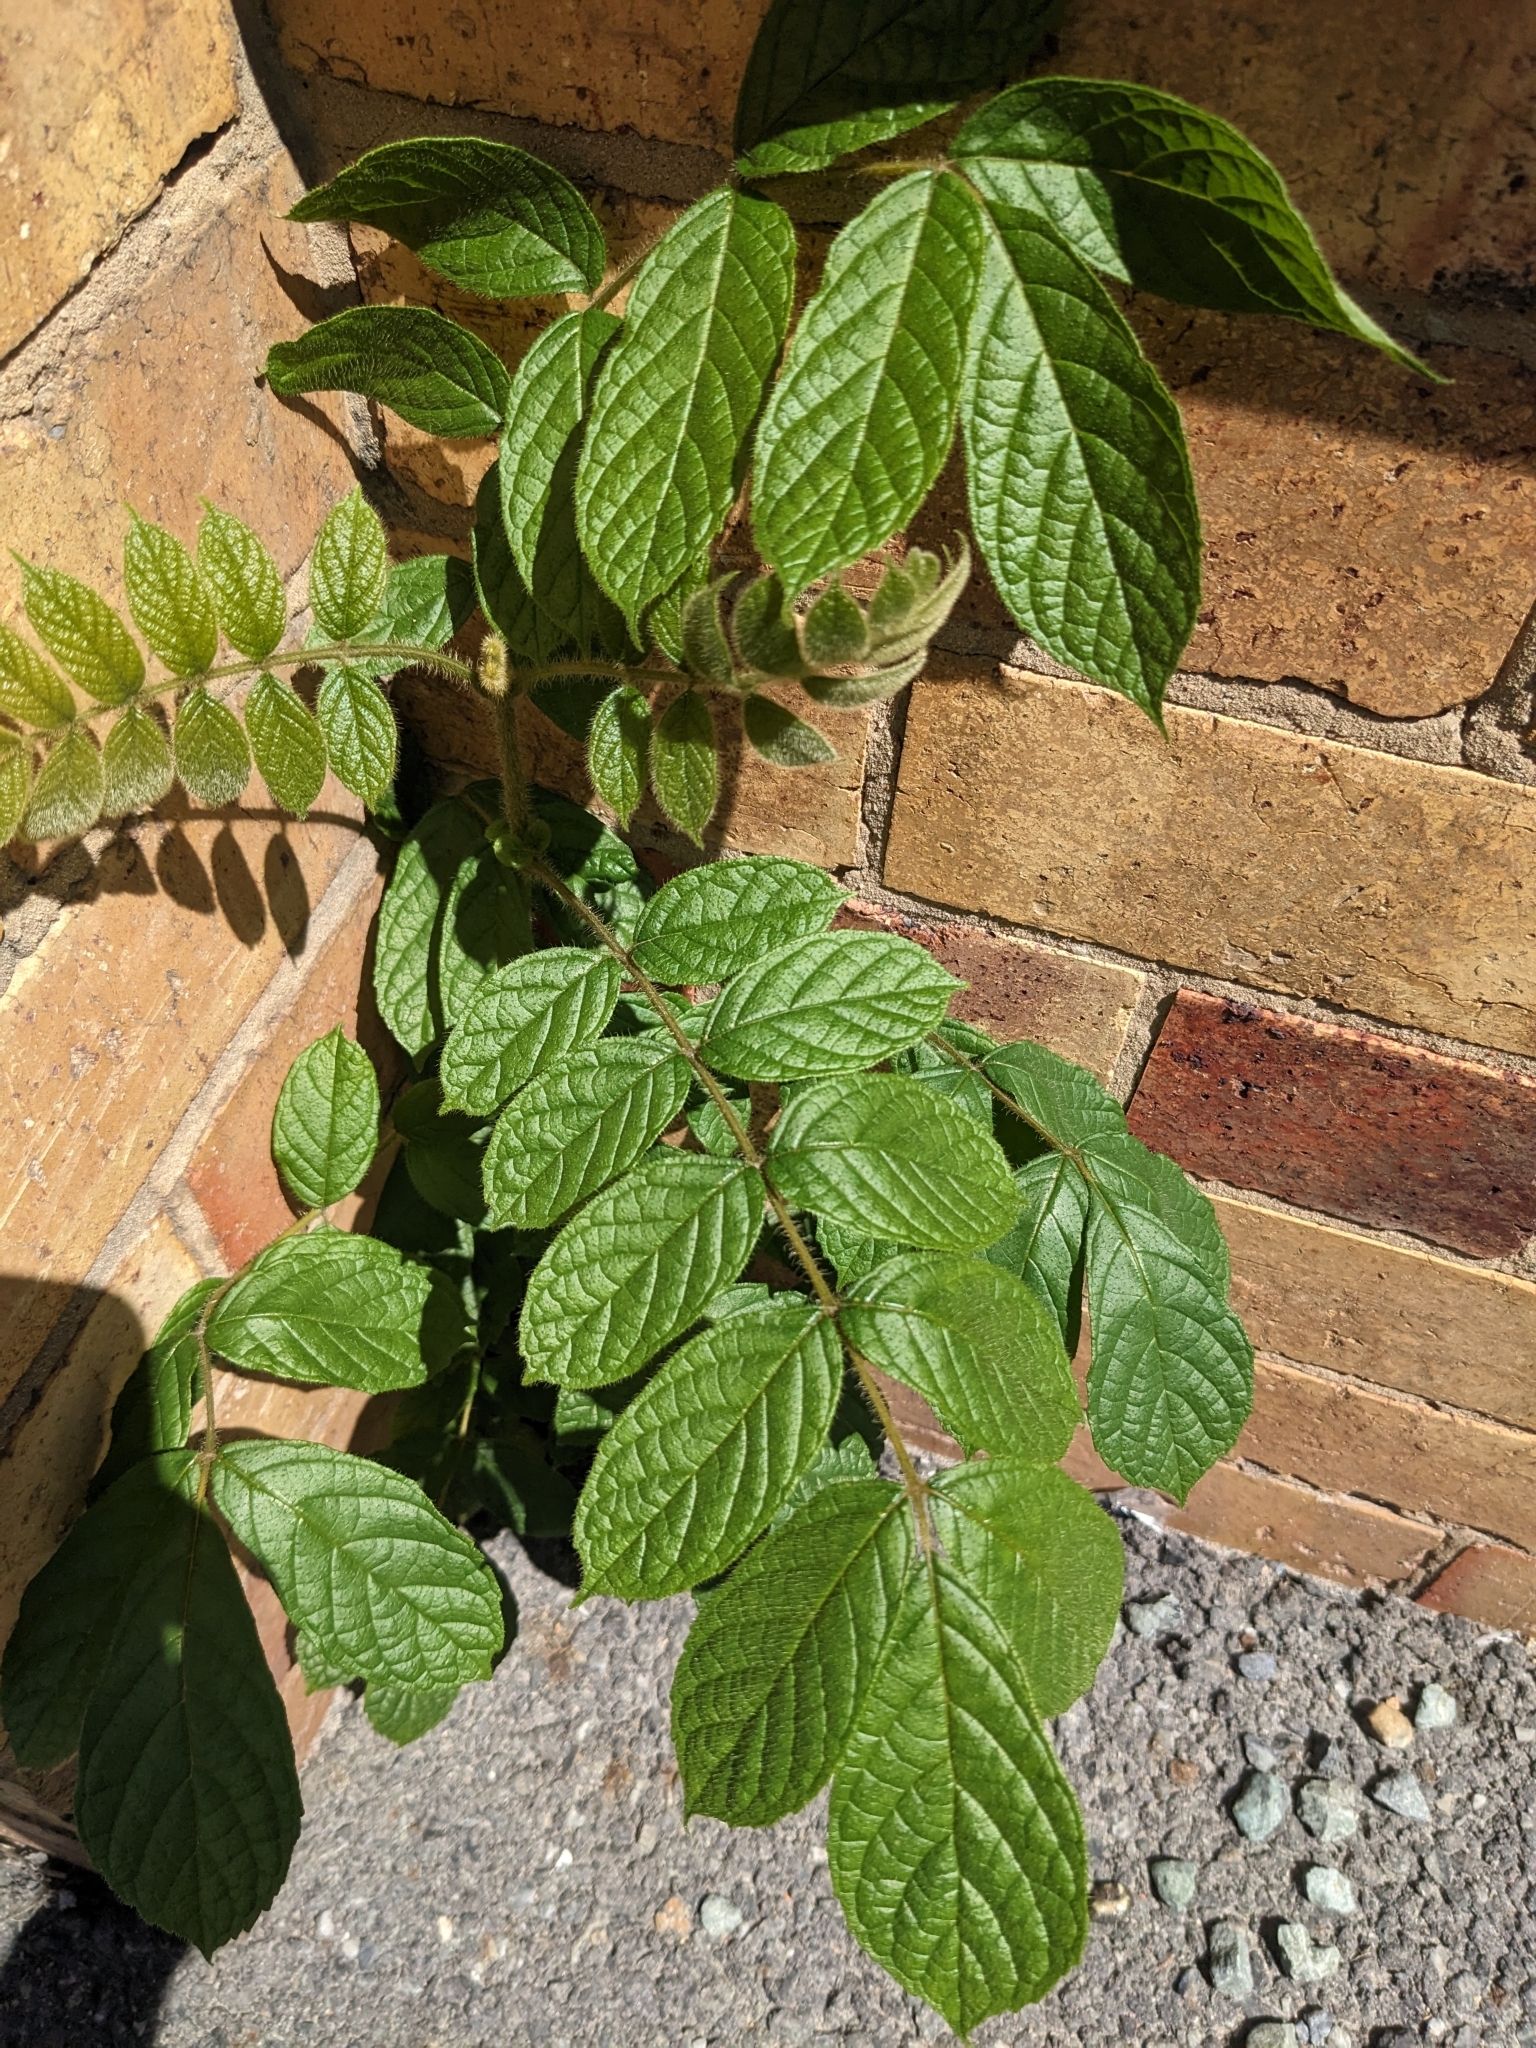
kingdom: Plantae
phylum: Tracheophyta
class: Magnoliopsida
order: Lamiales
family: Bignoniaceae
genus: Spathodea
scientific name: Spathodea campanulata
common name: African tuliptree
